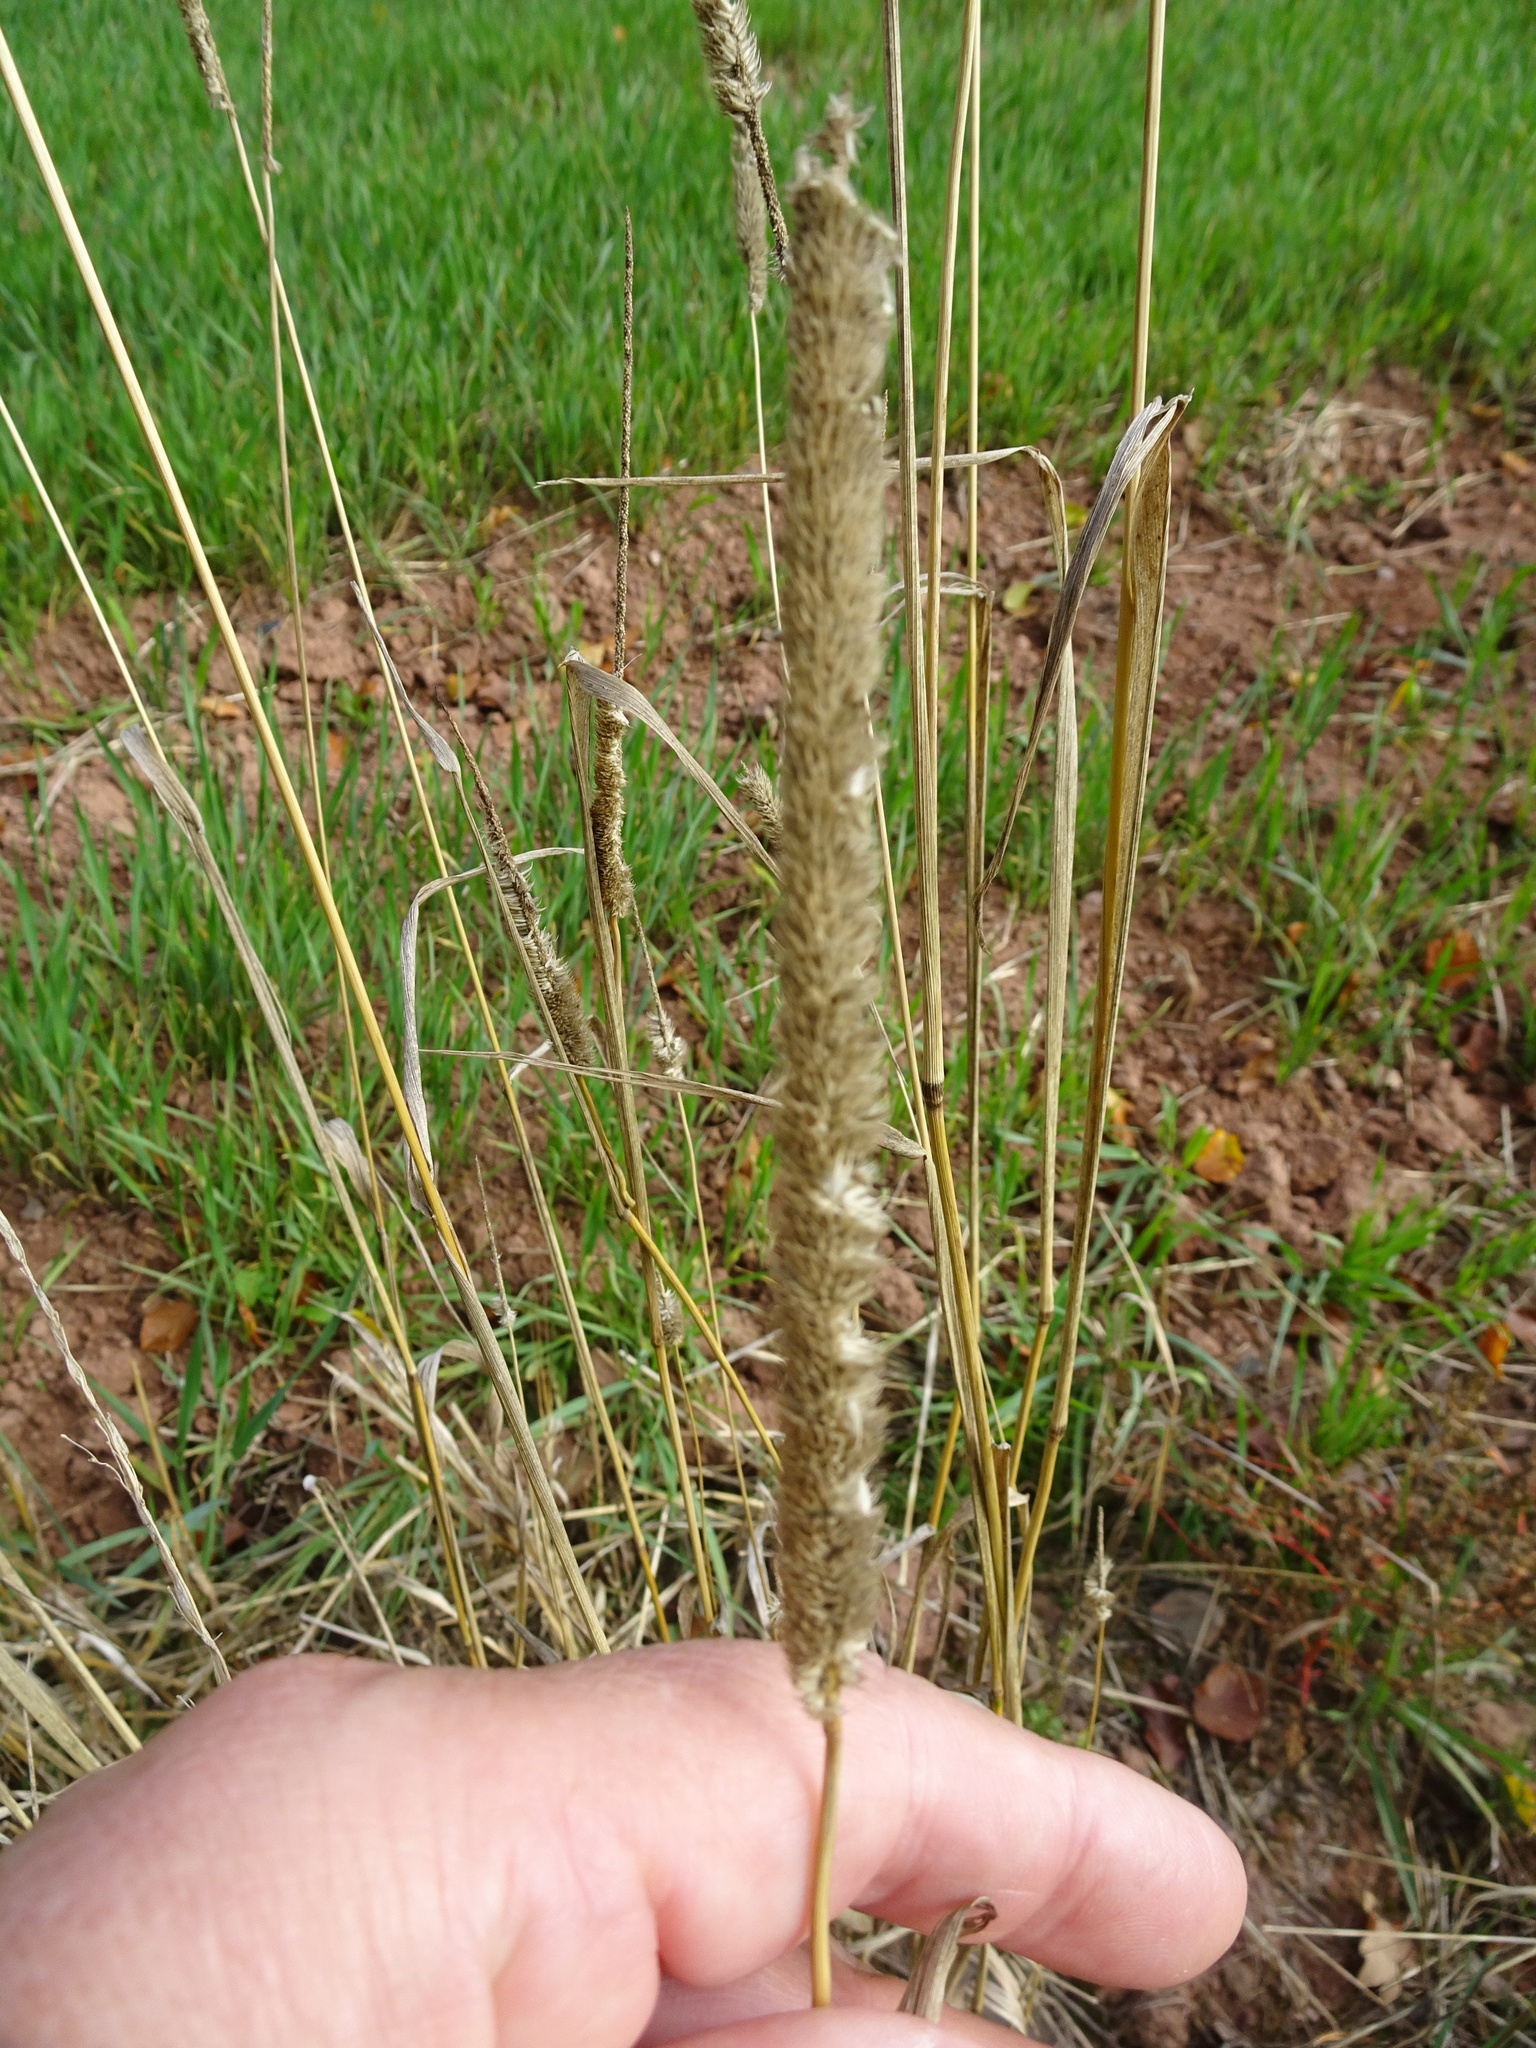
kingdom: Plantae
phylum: Tracheophyta
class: Liliopsida
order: Poales
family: Poaceae
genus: Phleum
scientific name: Phleum pratense
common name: Timothy grass
